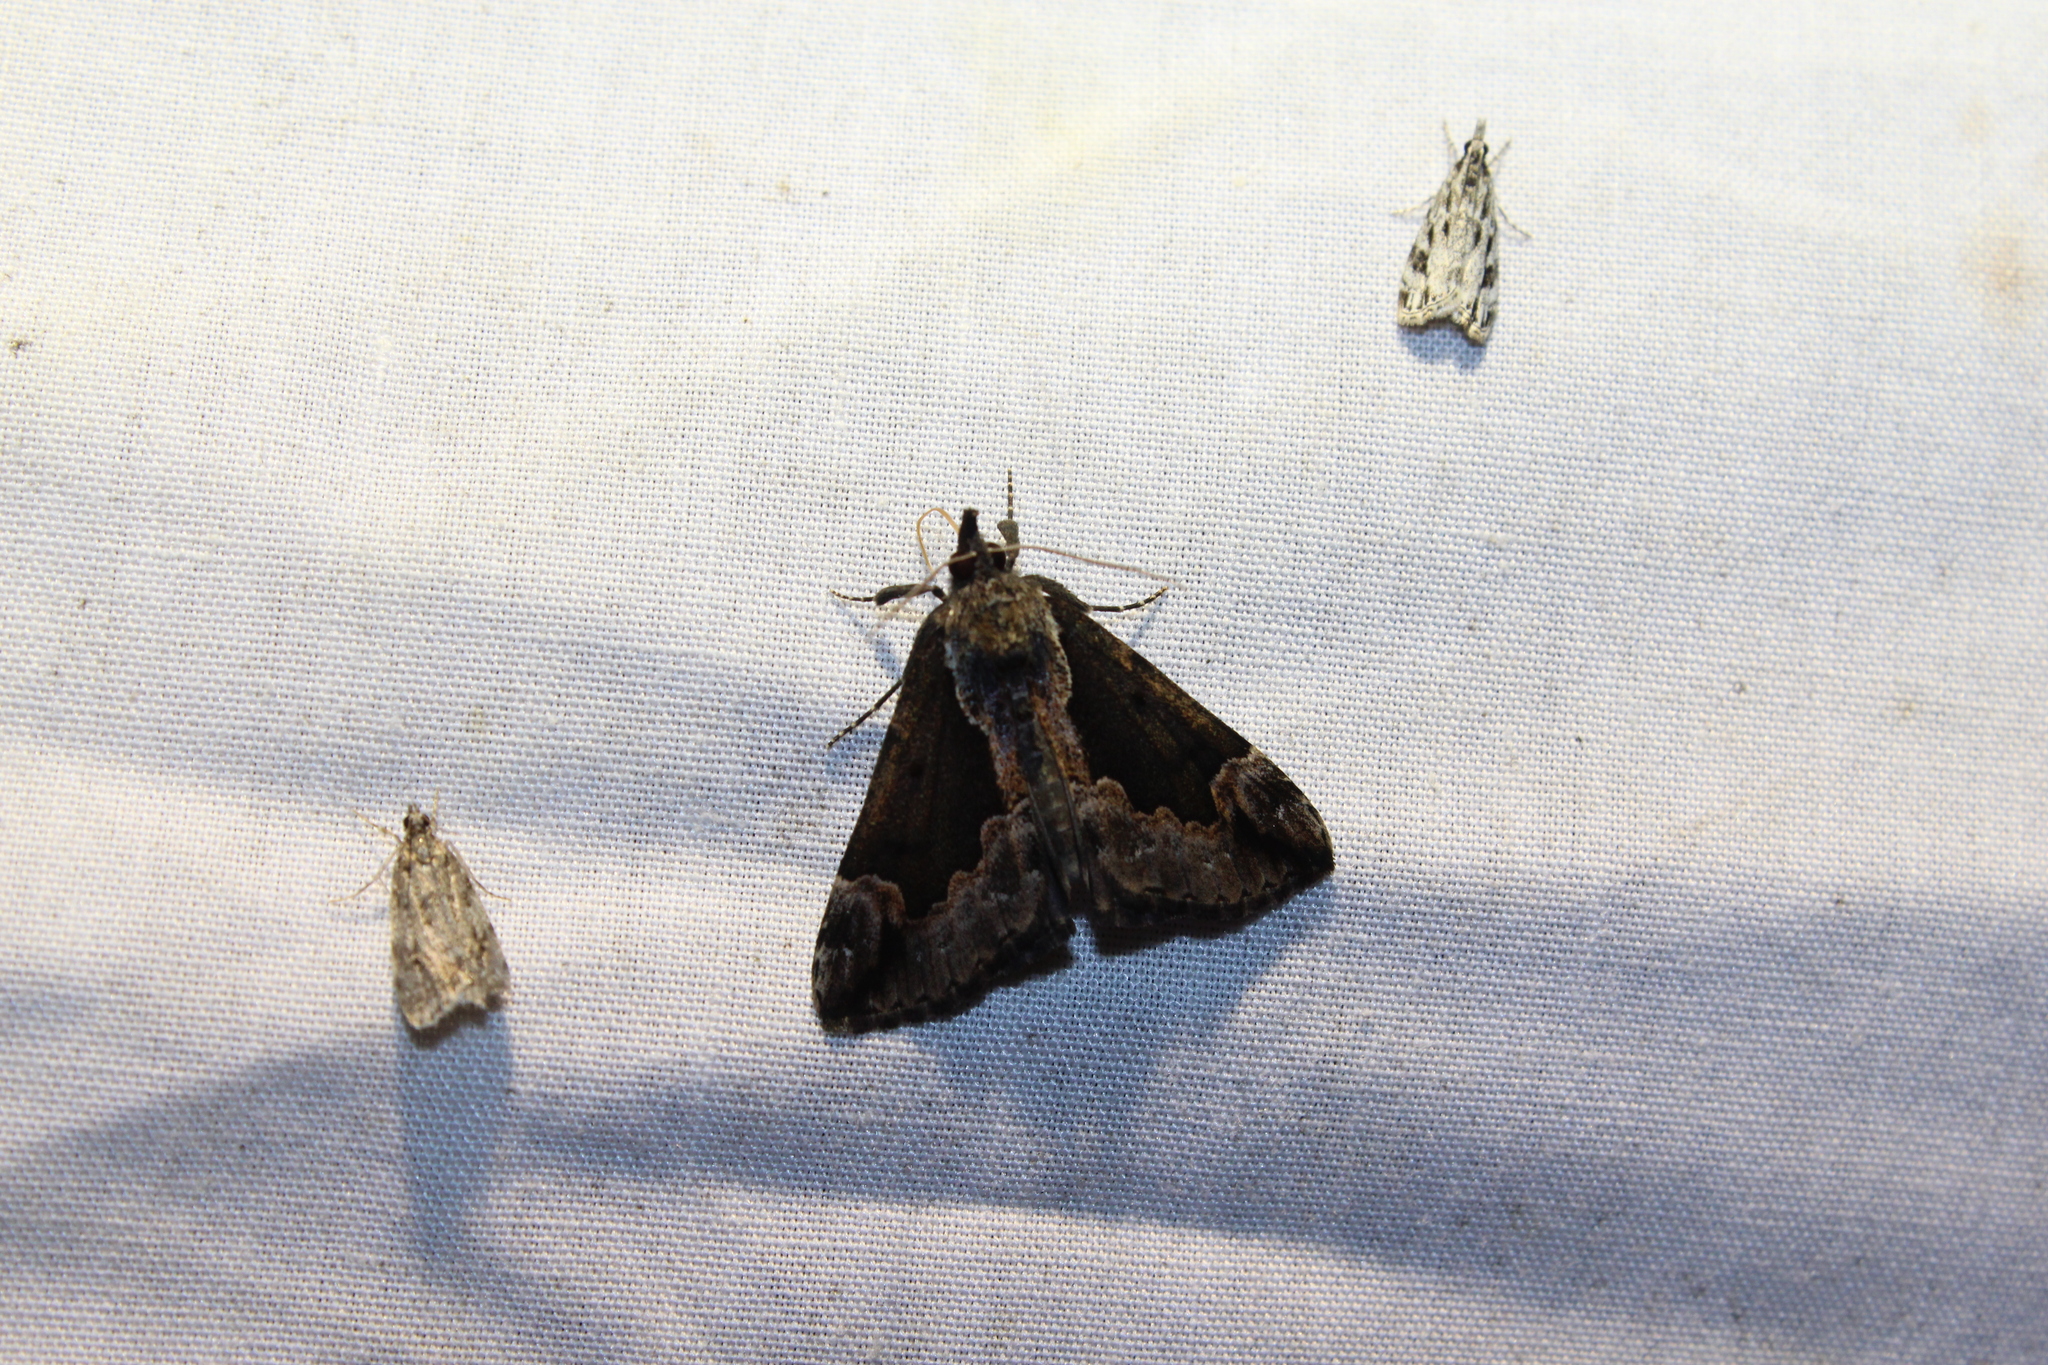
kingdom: Animalia
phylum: Arthropoda
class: Insecta
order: Lepidoptera
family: Erebidae
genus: Hypena
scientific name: Hypena baltimoralis
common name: Baltimore snout
